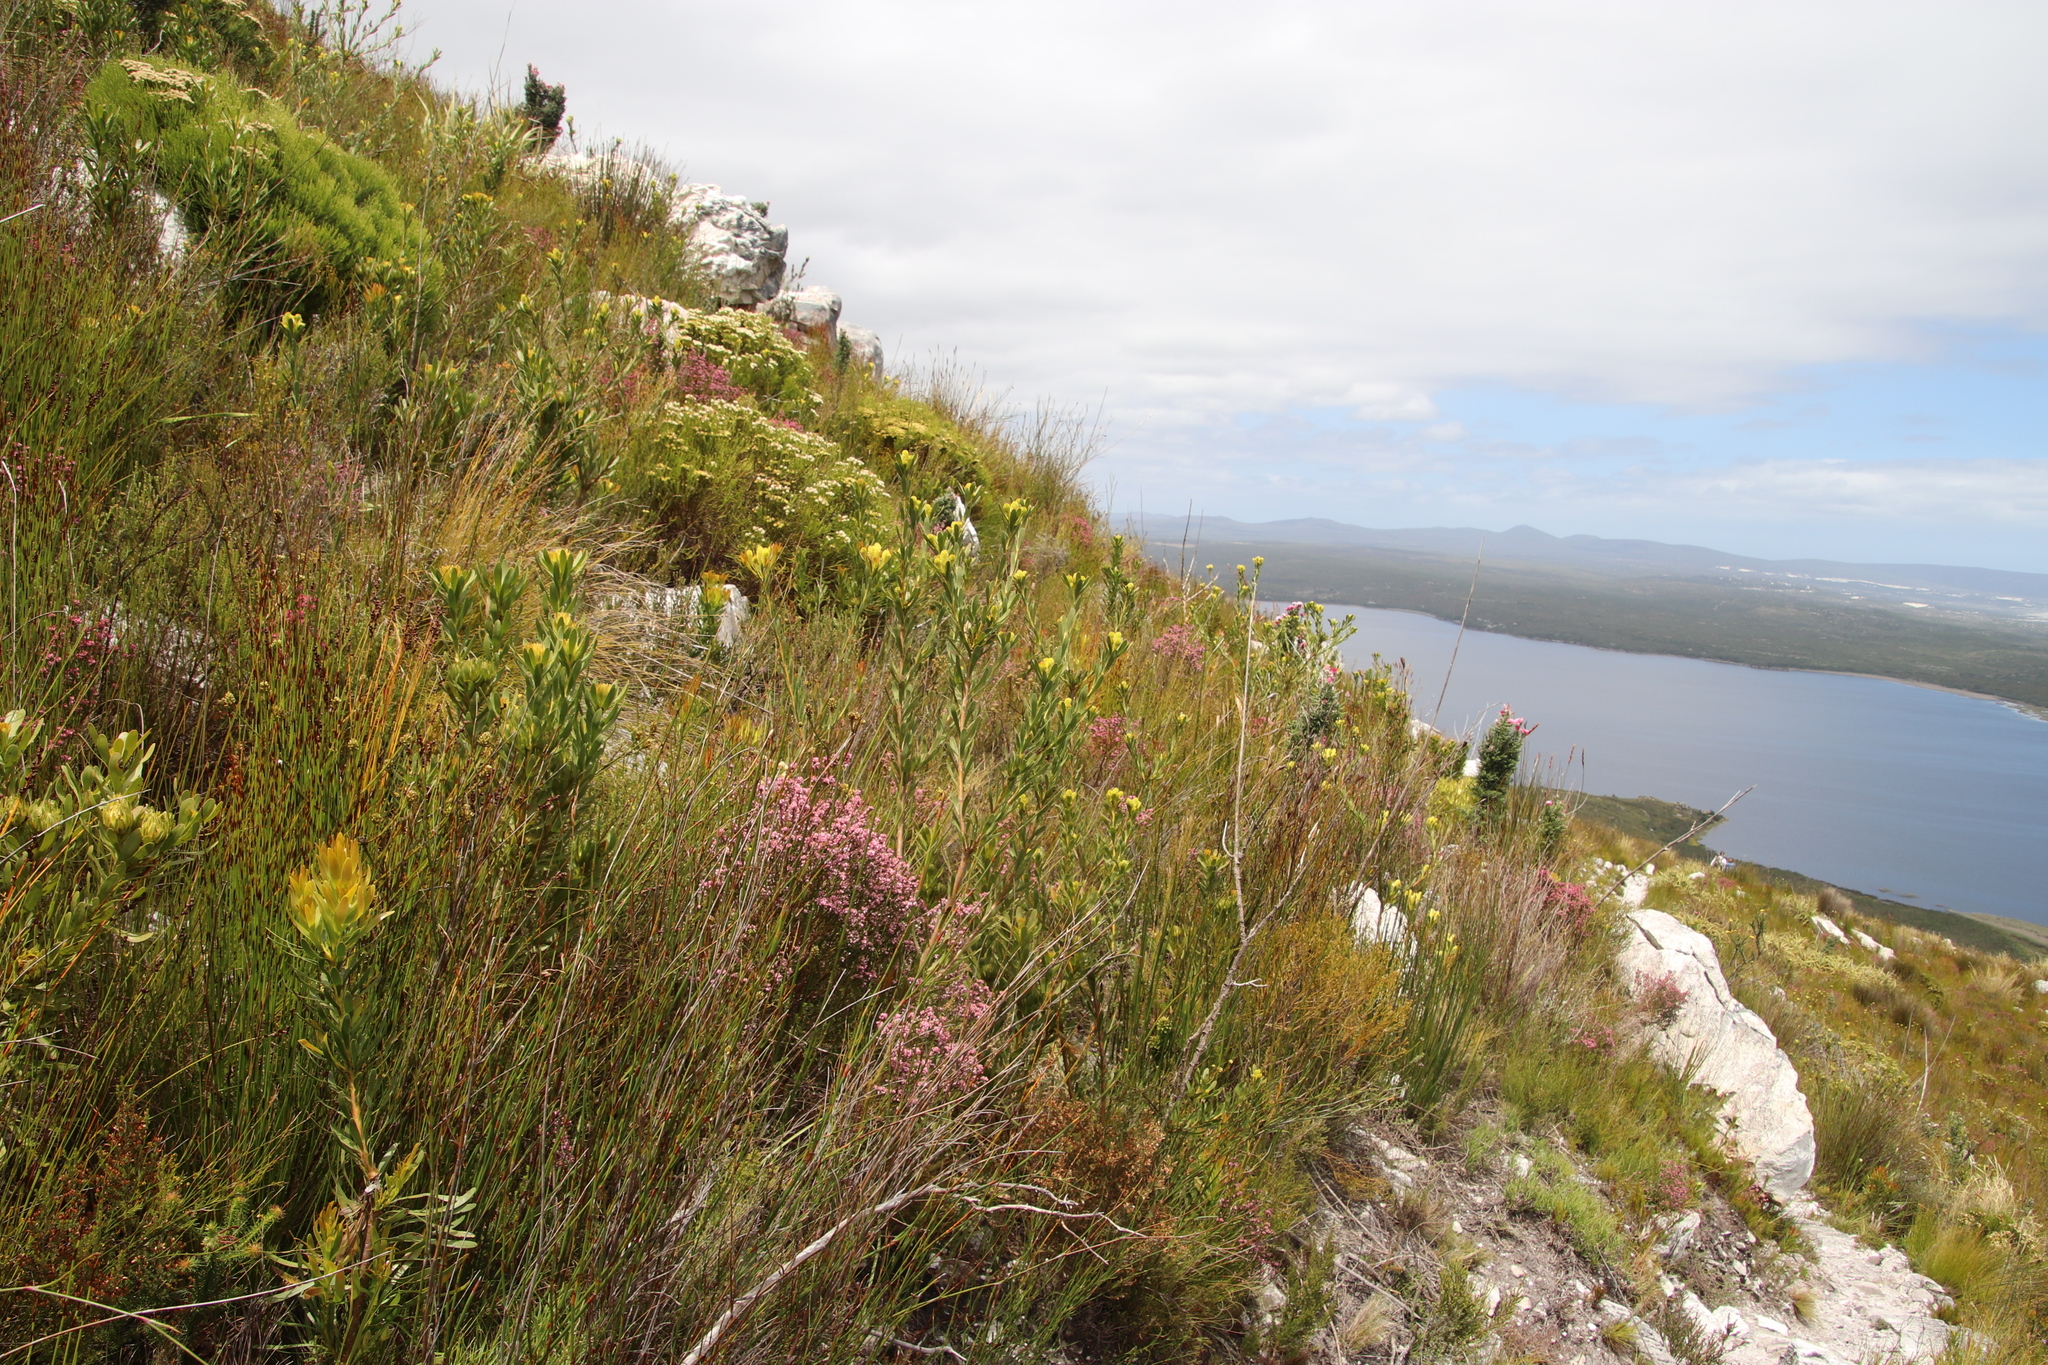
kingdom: Plantae
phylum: Tracheophyta
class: Magnoliopsida
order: Proteales
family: Proteaceae
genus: Aulax
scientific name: Aulax umbellata
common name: Broad-leaf featherbush
